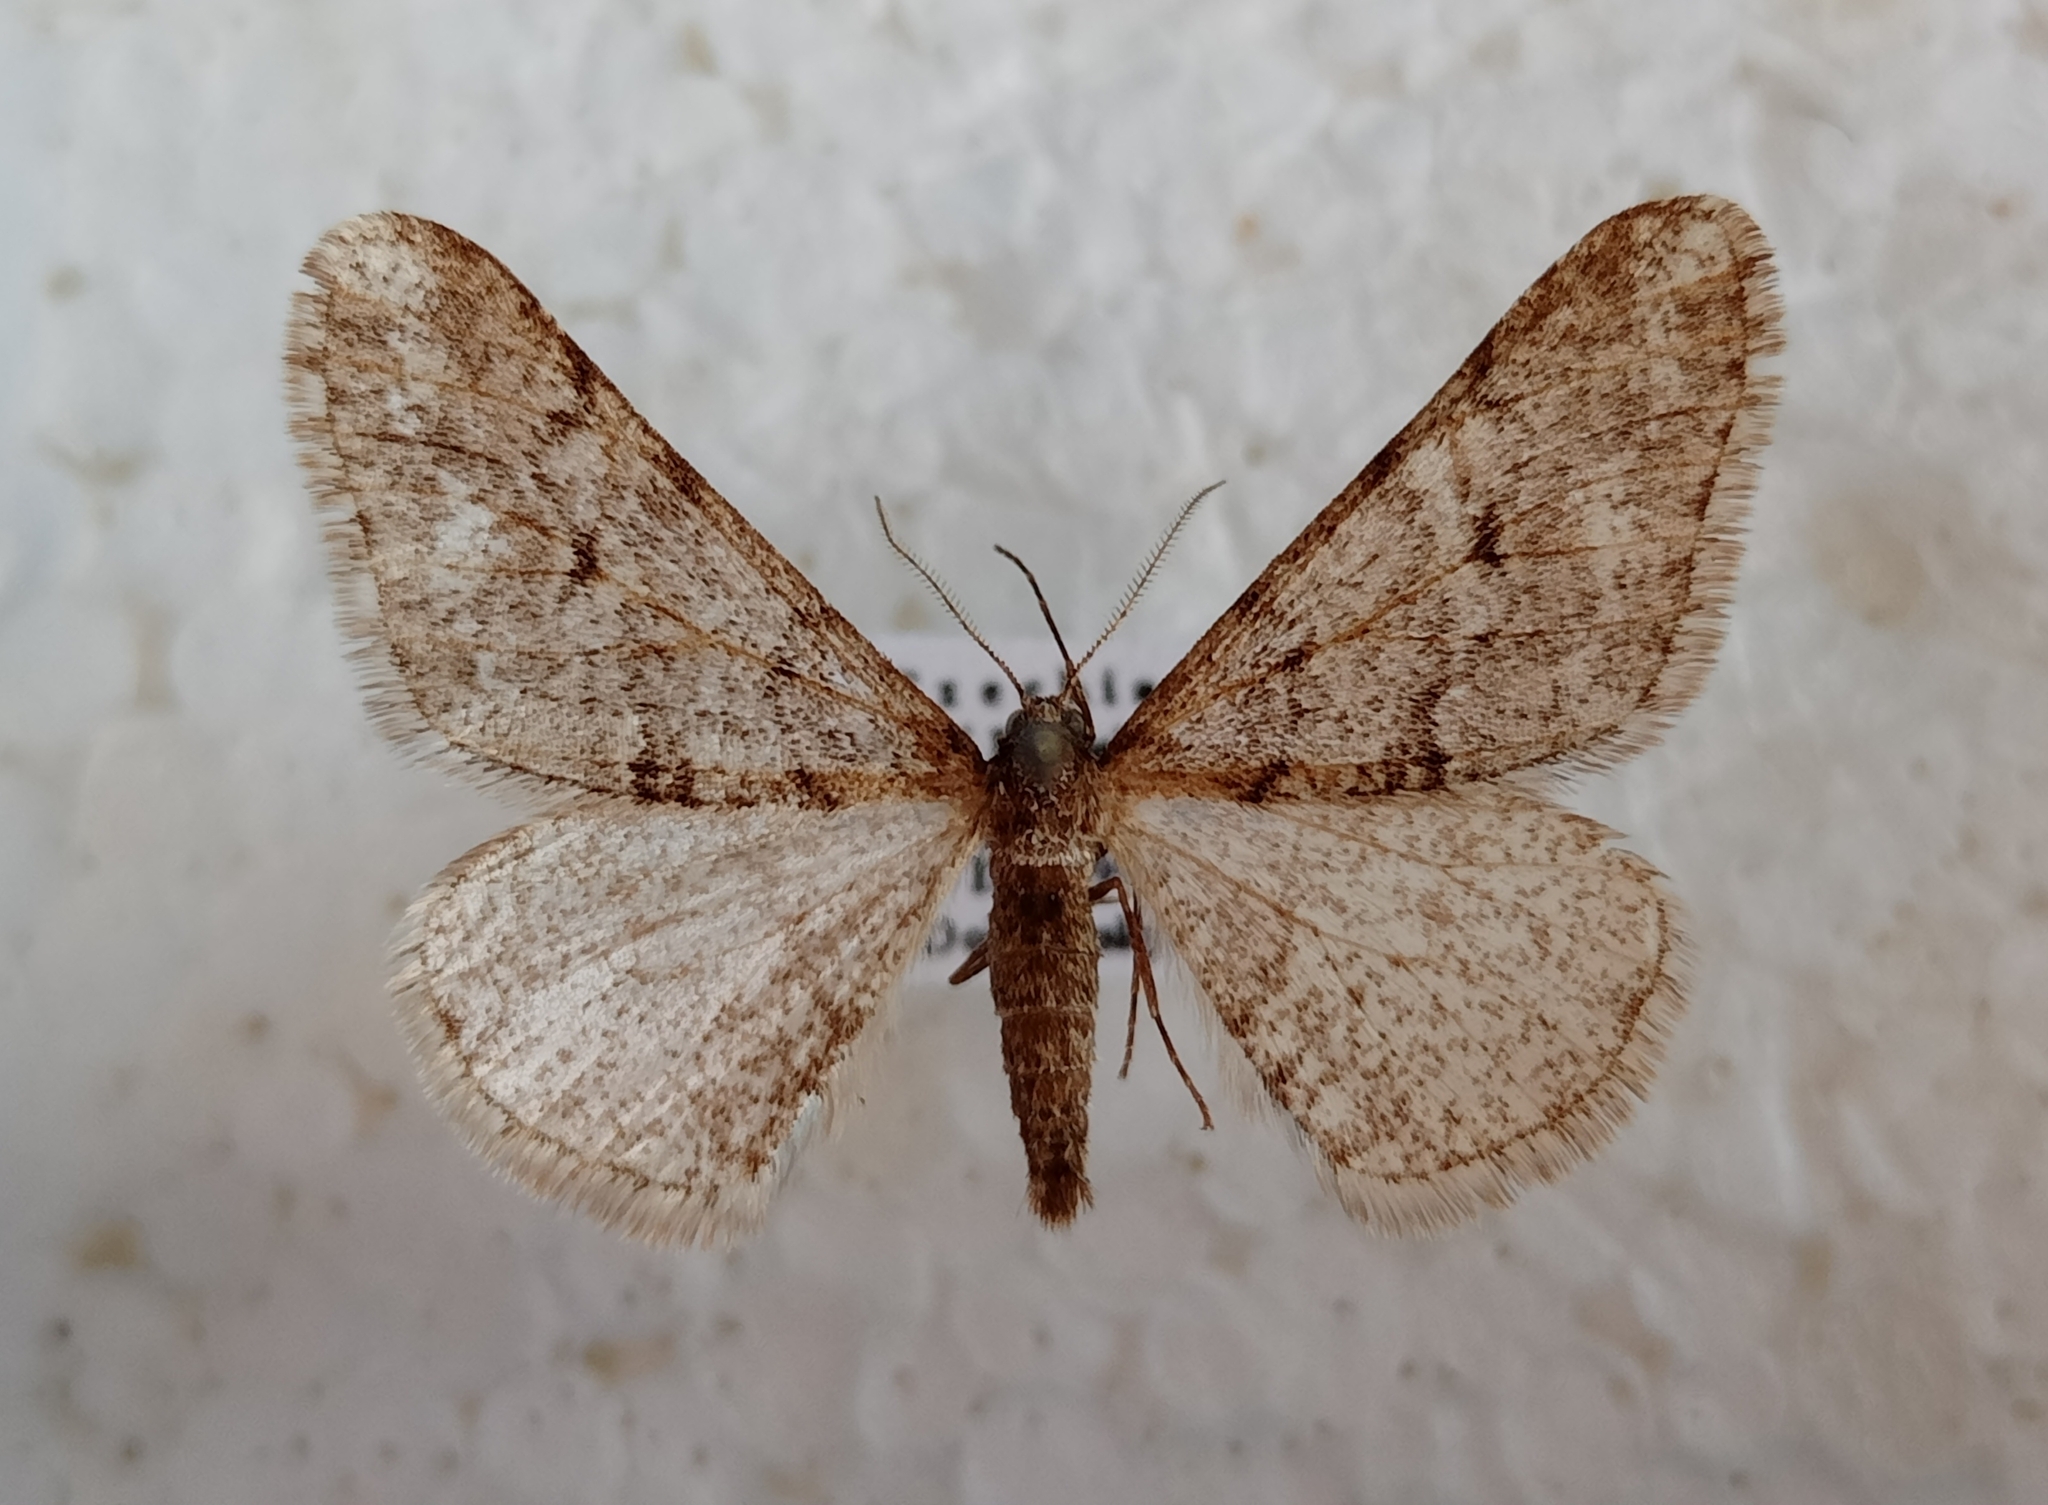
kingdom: Animalia
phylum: Arthropoda
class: Insecta
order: Lepidoptera
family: Geometridae
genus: Agriopis
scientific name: Agriopis leucophaearia
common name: Spring usher
